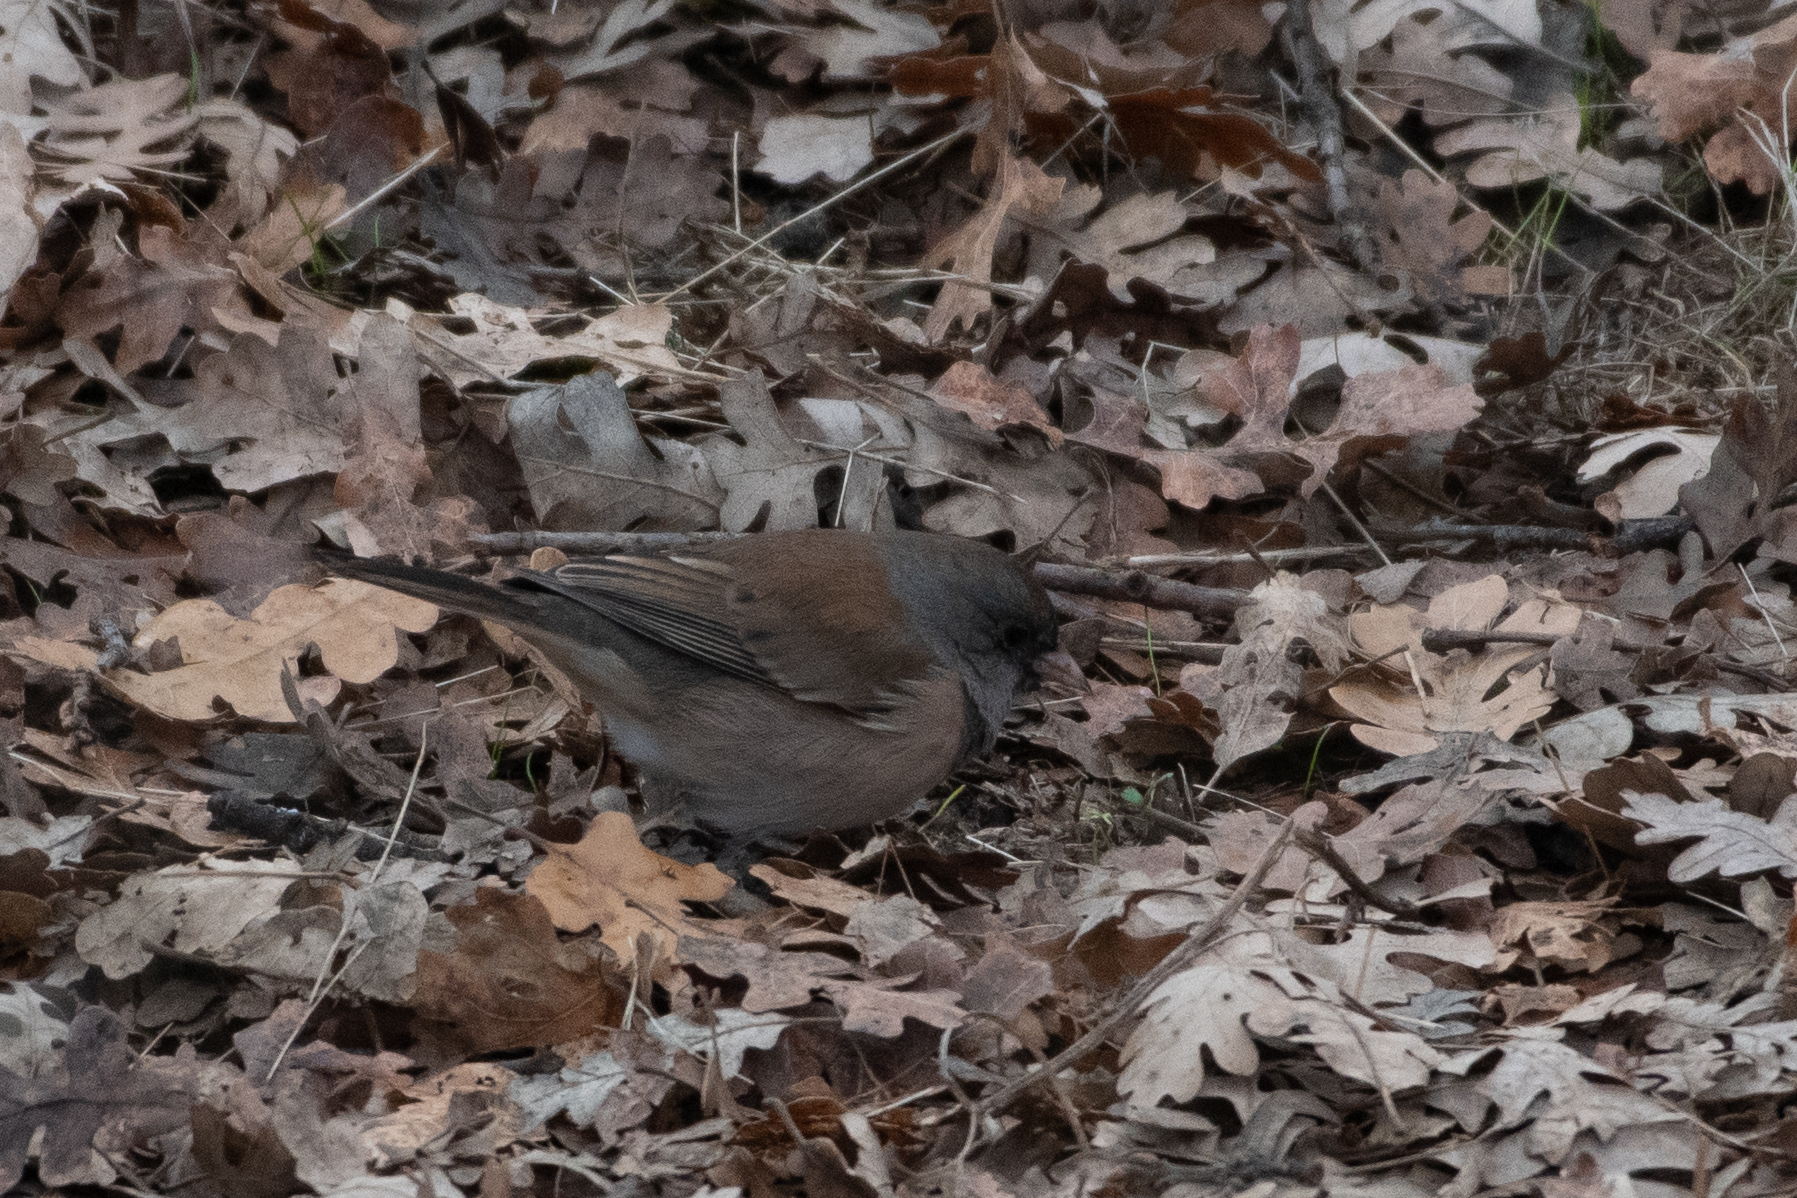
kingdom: Animalia
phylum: Chordata
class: Aves
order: Passeriformes
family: Passerellidae
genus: Junco
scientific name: Junco hyemalis
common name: Dark-eyed junco
